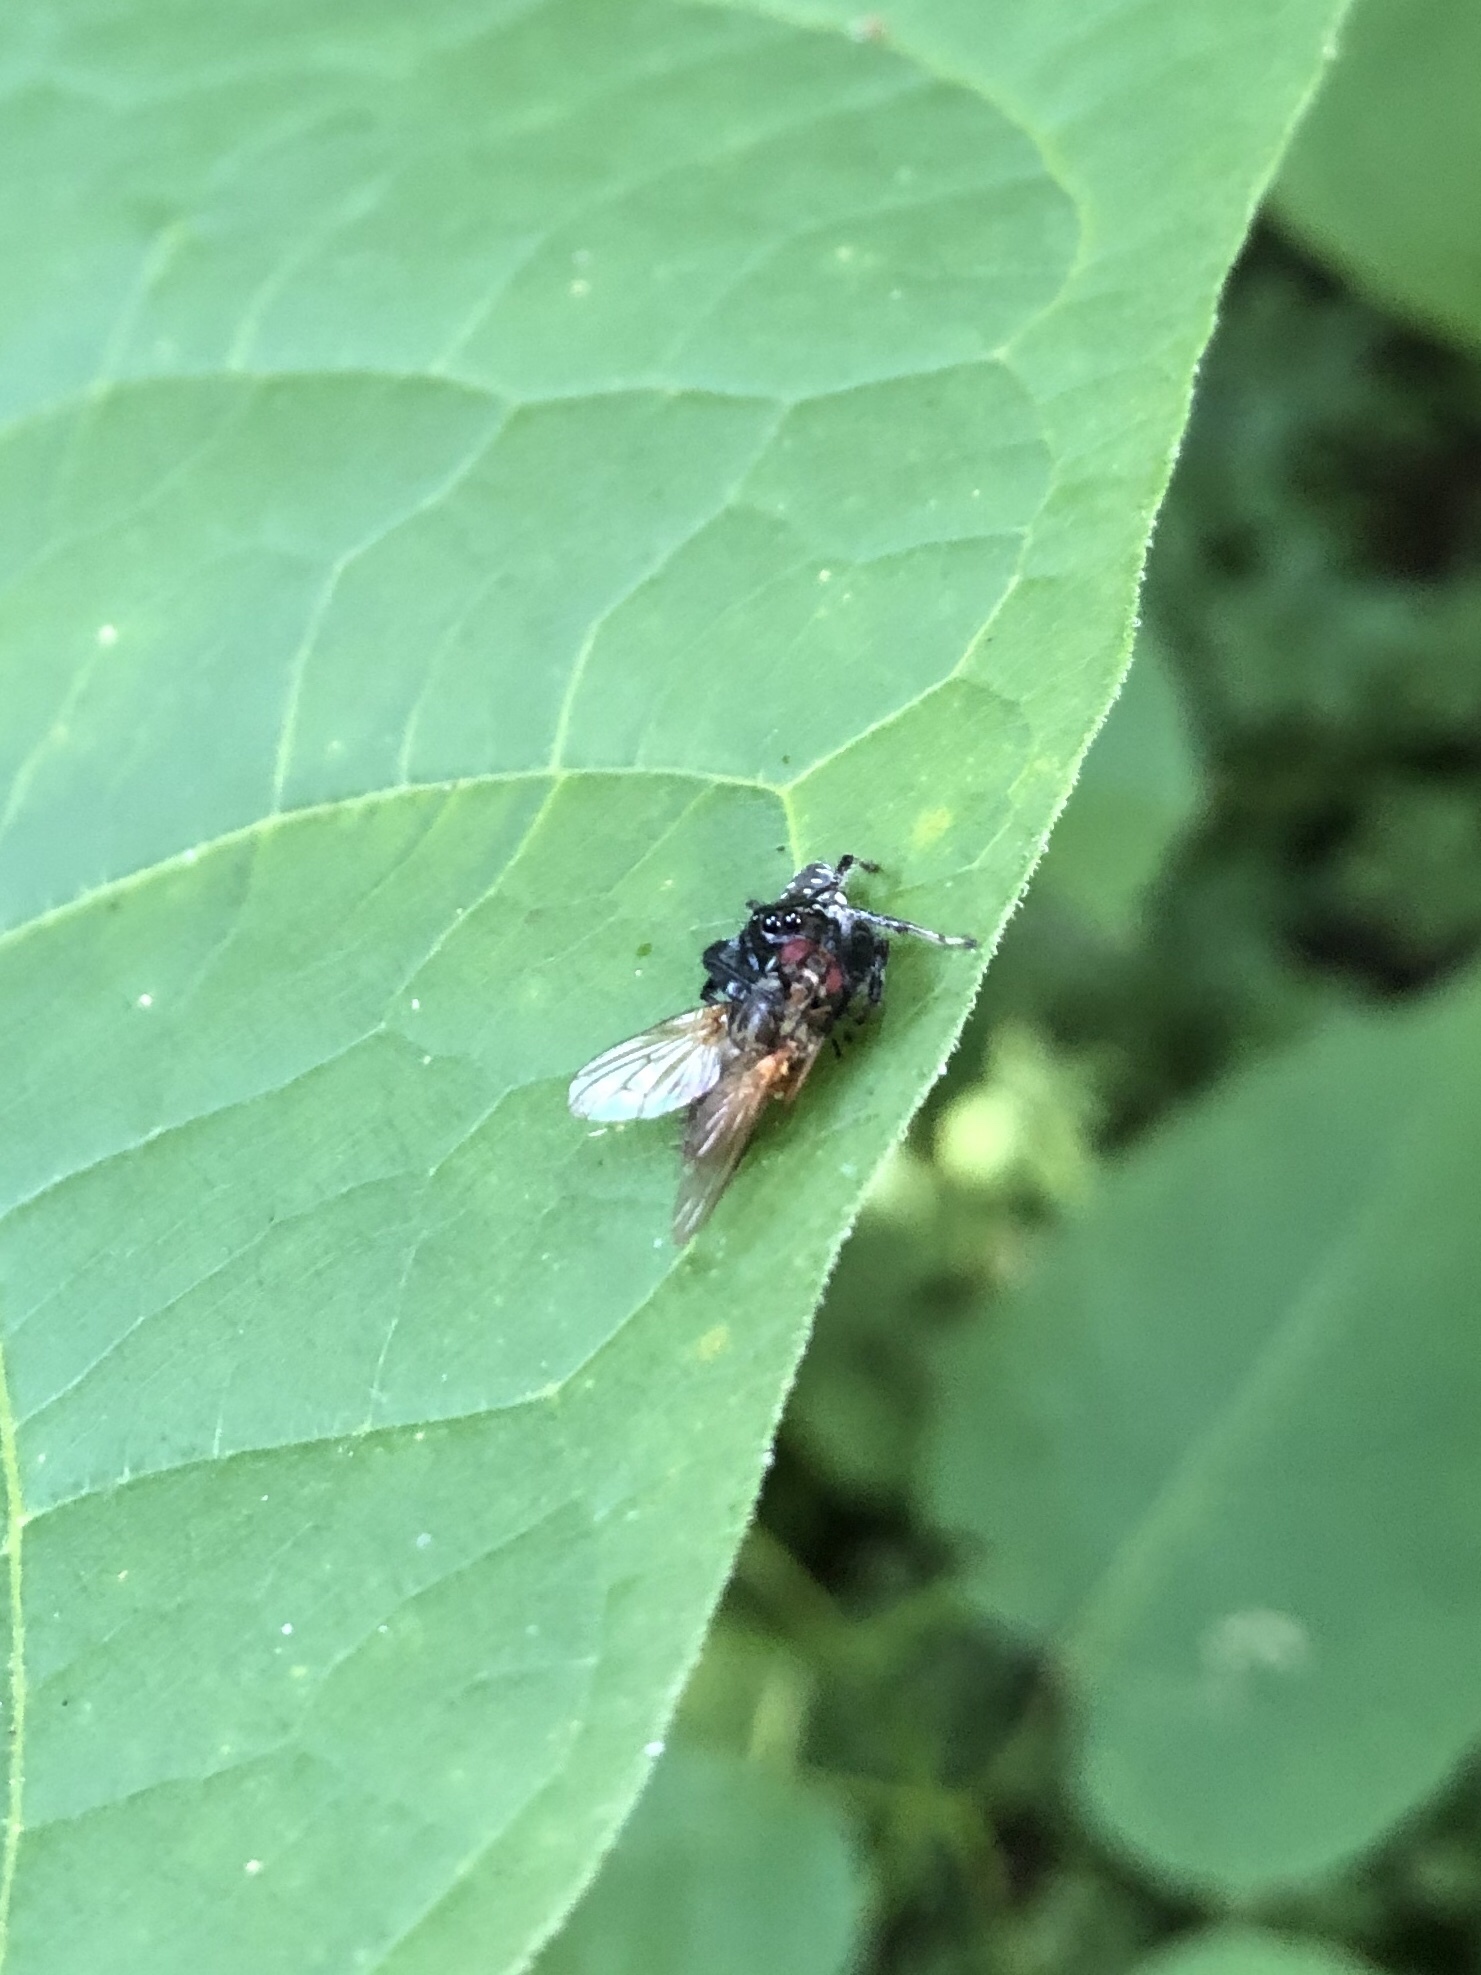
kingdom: Animalia
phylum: Arthropoda
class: Arachnida
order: Araneae
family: Salticidae
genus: Paraphidippus
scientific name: Paraphidippus aurantius
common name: Jumping spiders
